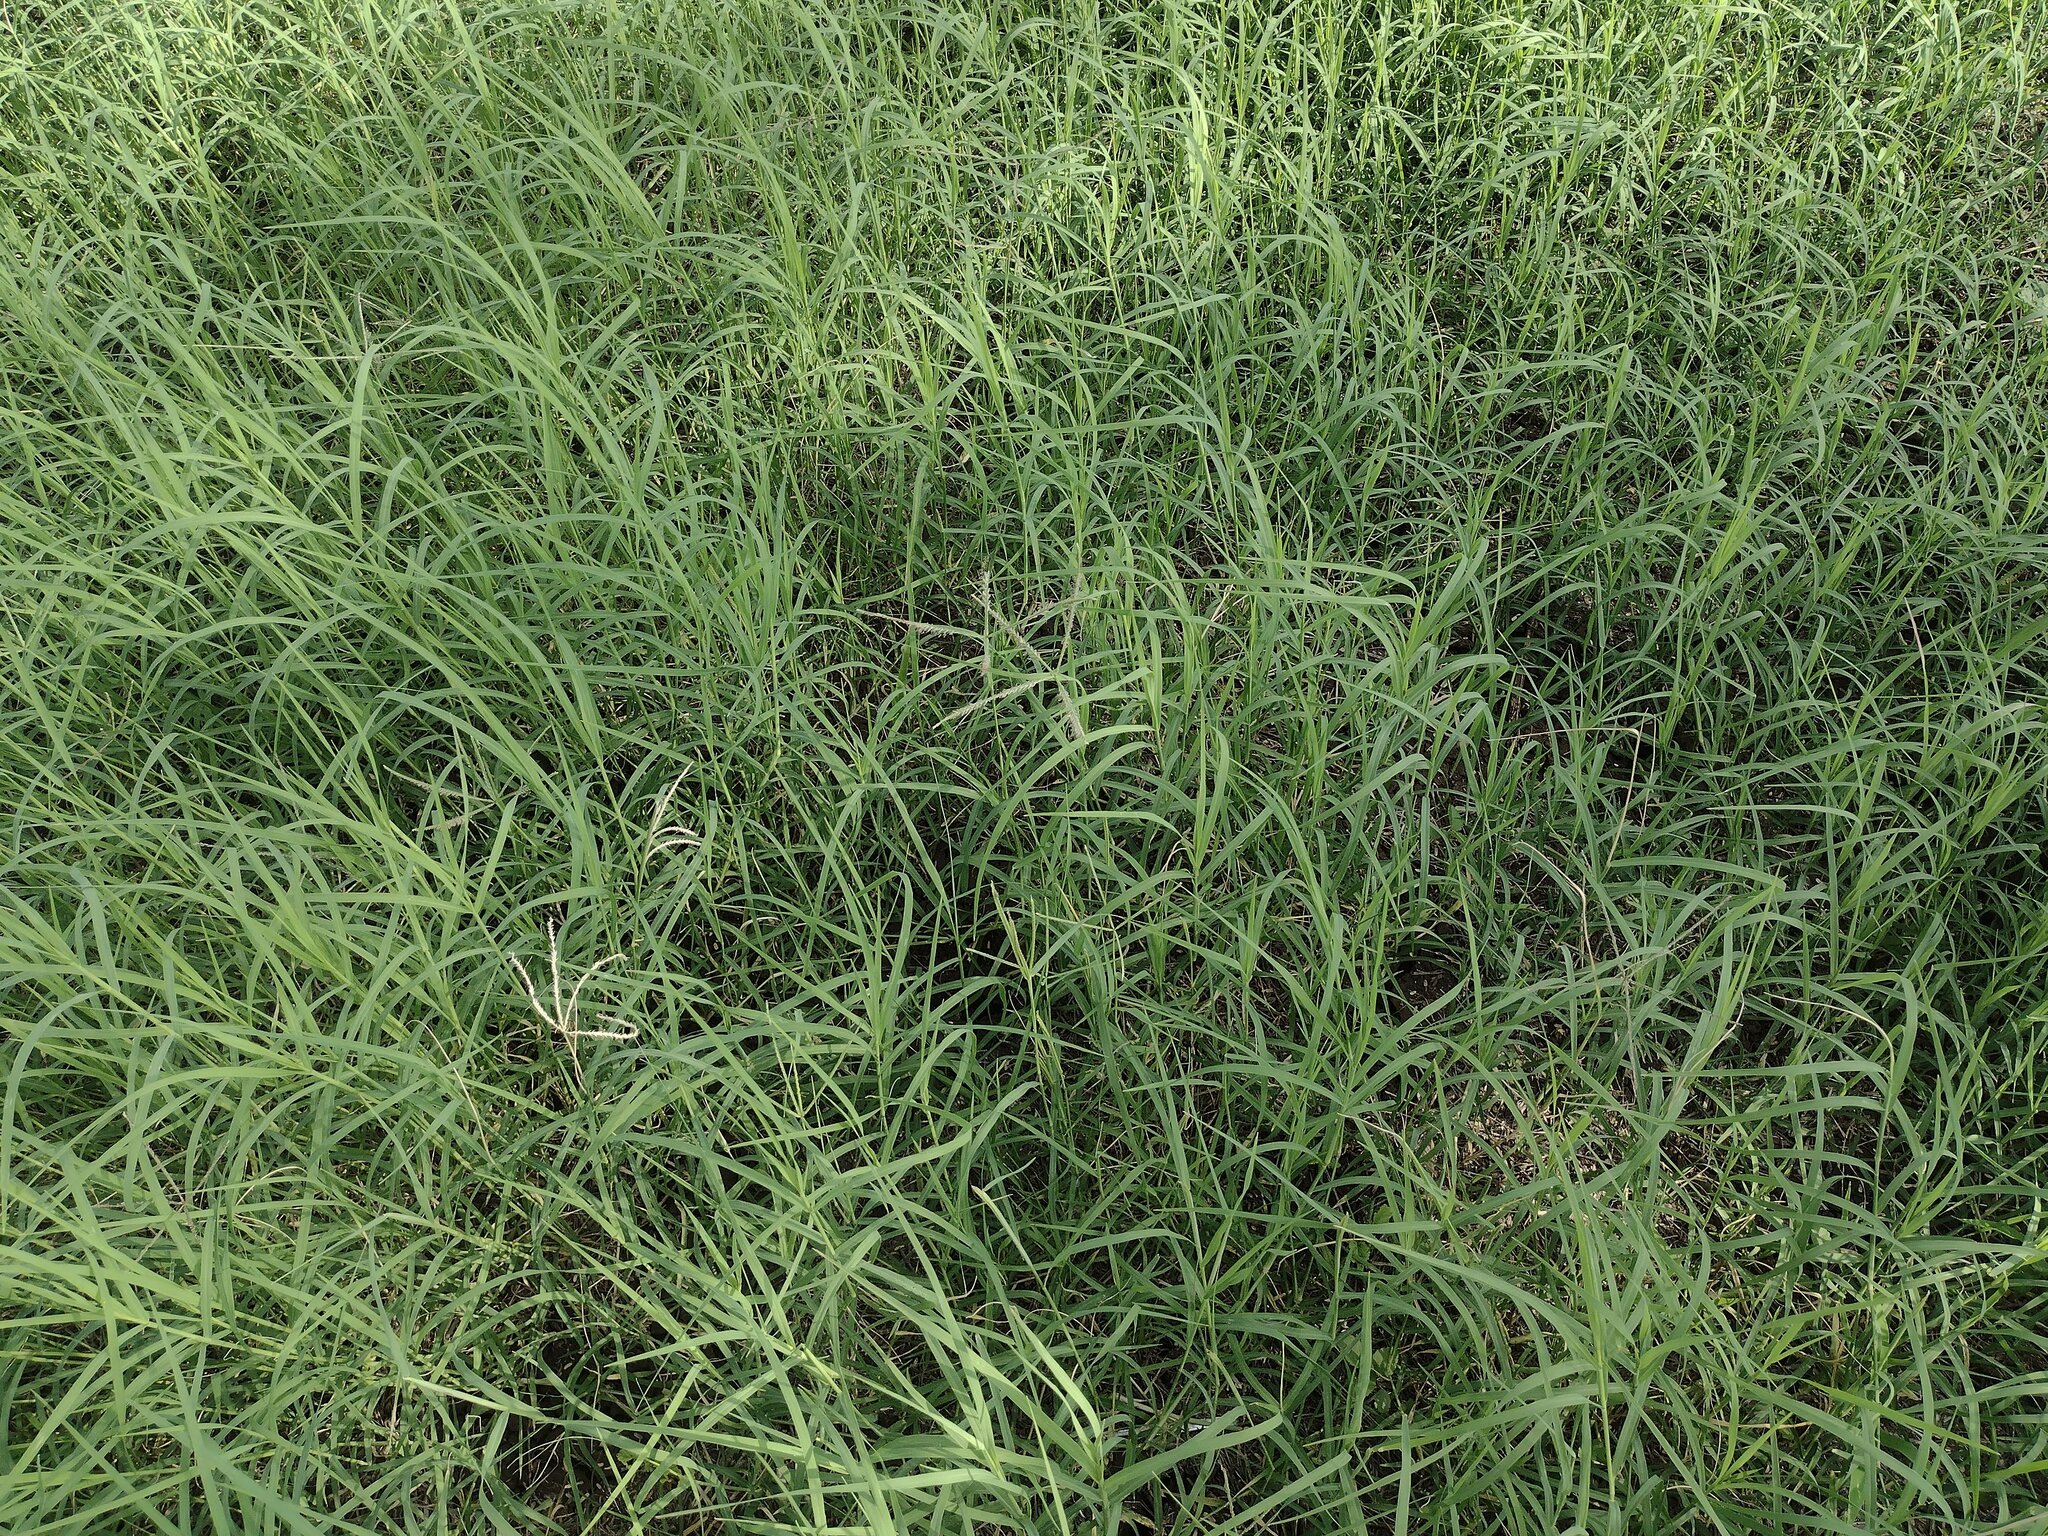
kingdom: Plantae
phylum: Tracheophyta
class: Liliopsida
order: Poales
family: Poaceae
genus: Cynodon
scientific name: Cynodon dactylon
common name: Bermuda grass
